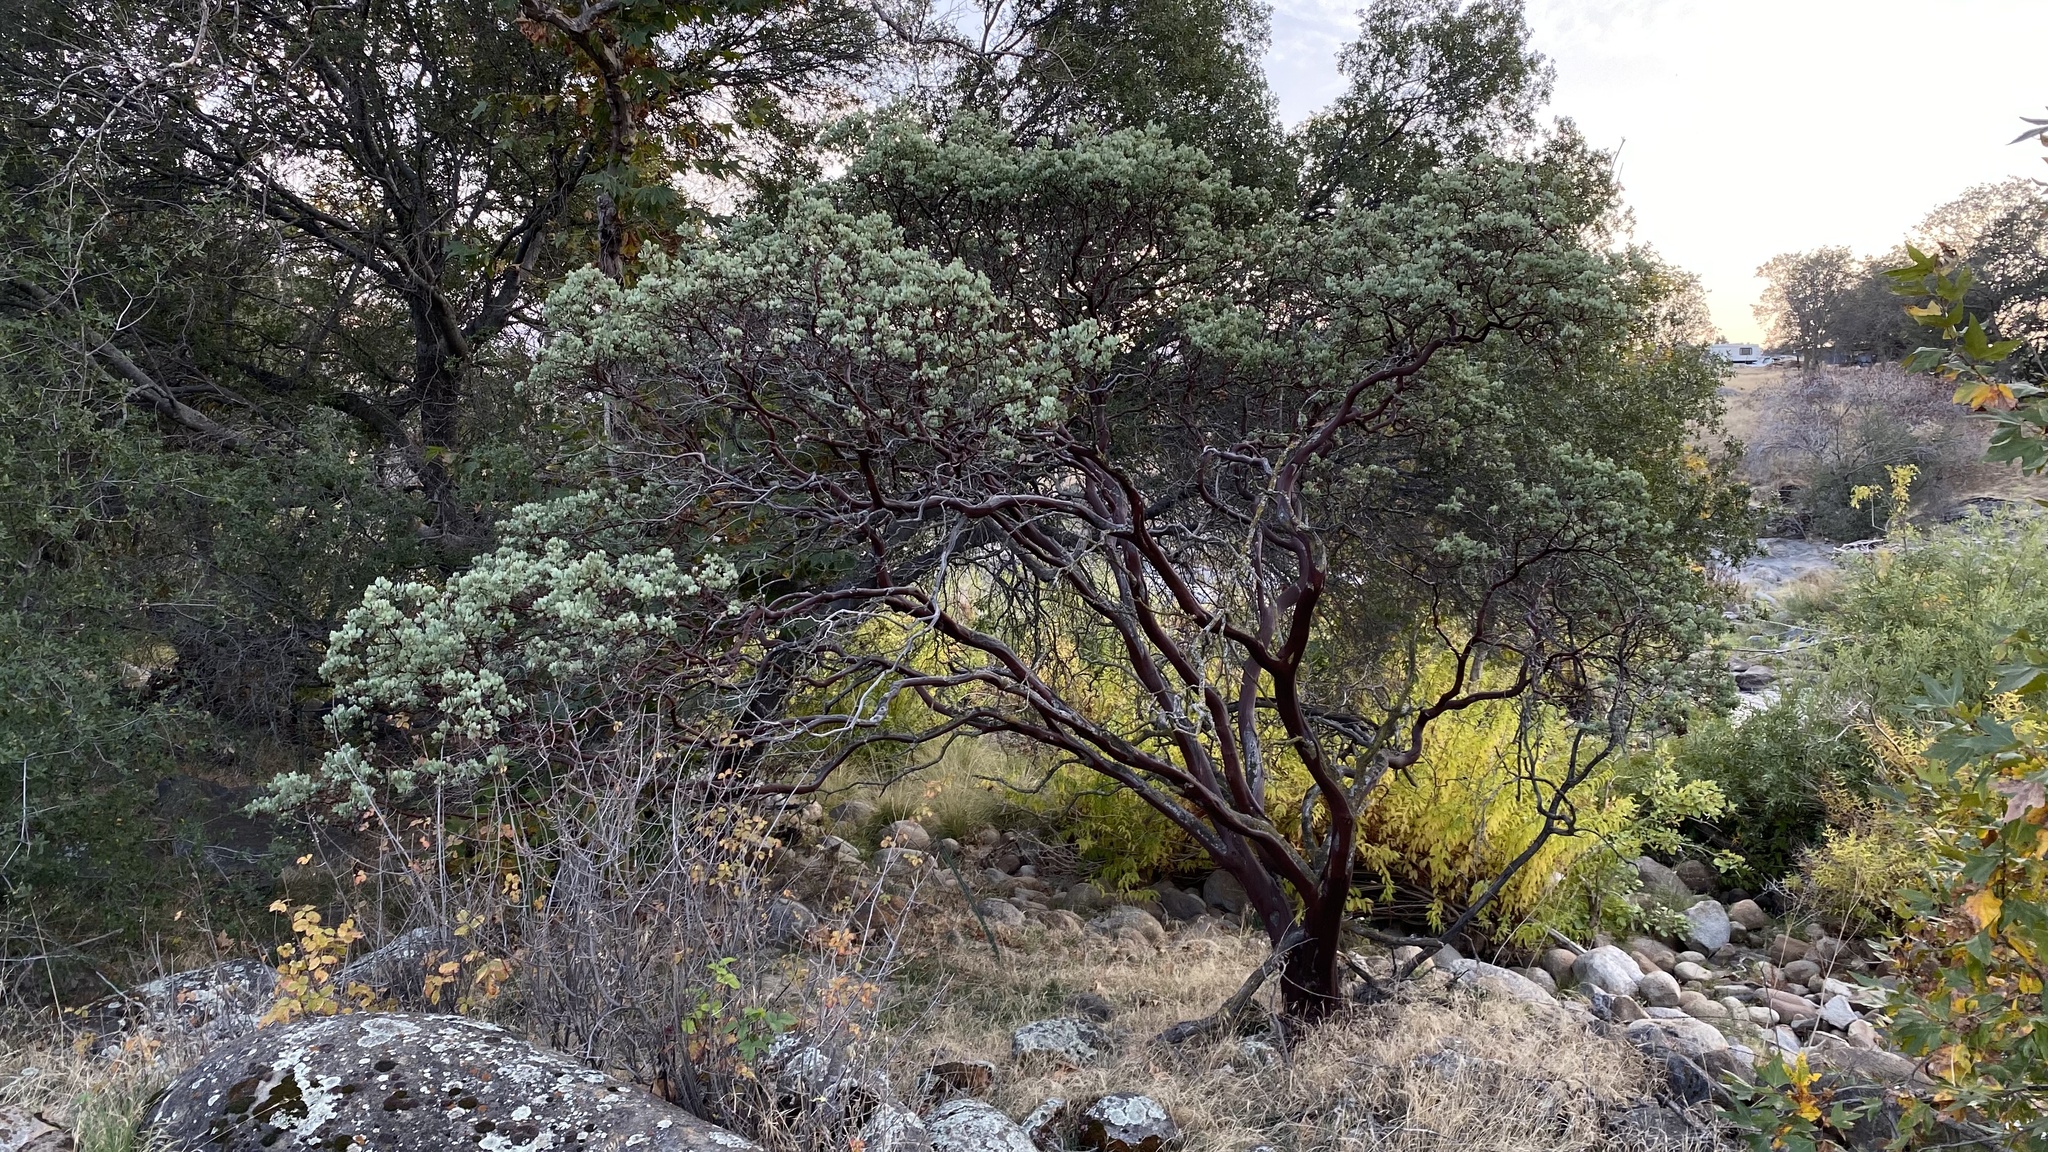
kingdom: Plantae
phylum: Tracheophyta
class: Magnoliopsida
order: Ericales
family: Ericaceae
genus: Arctostaphylos
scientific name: Arctostaphylos viscida
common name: White-leaf manzanita
